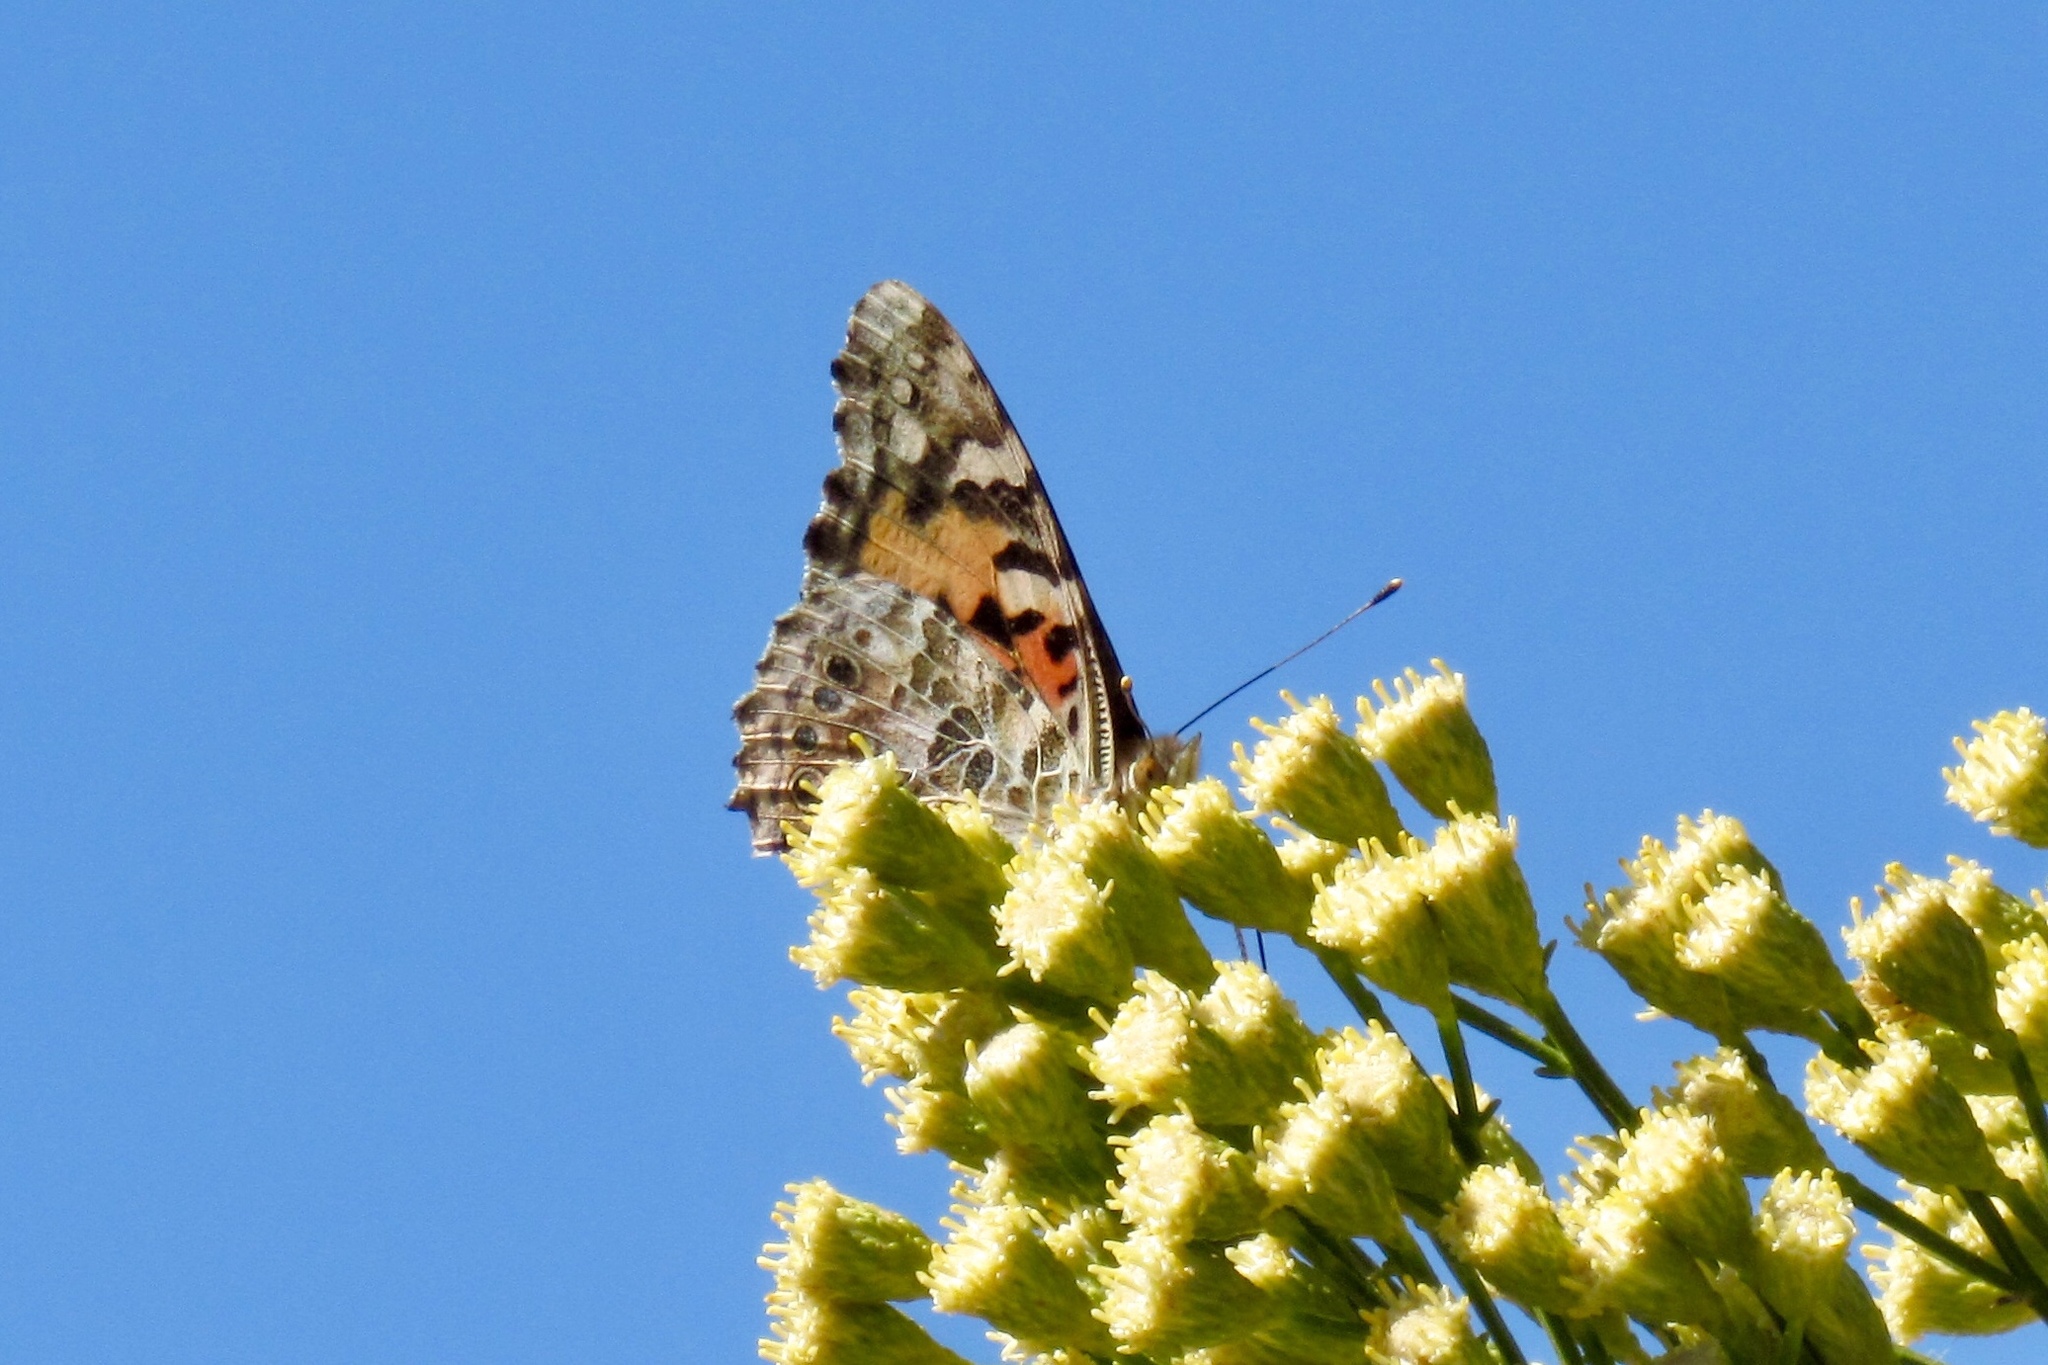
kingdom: Animalia
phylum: Arthropoda
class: Insecta
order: Lepidoptera
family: Nymphalidae
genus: Vanessa
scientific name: Vanessa cardui
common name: Painted lady
